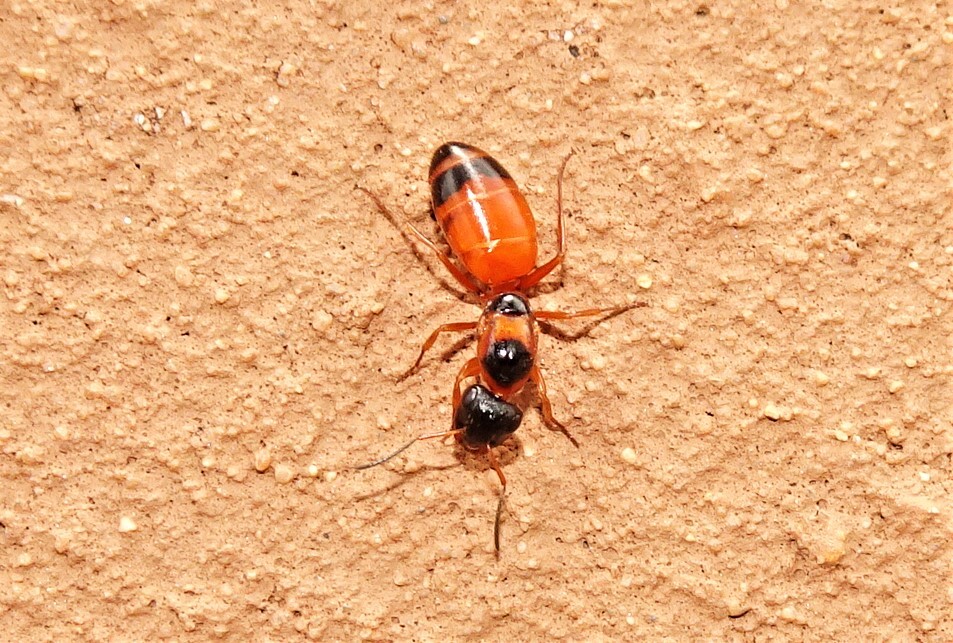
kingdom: Animalia
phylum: Arthropoda
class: Insecta
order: Hymenoptera
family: Formicidae
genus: Opisthopsis
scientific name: Opisthopsis rufithorax
